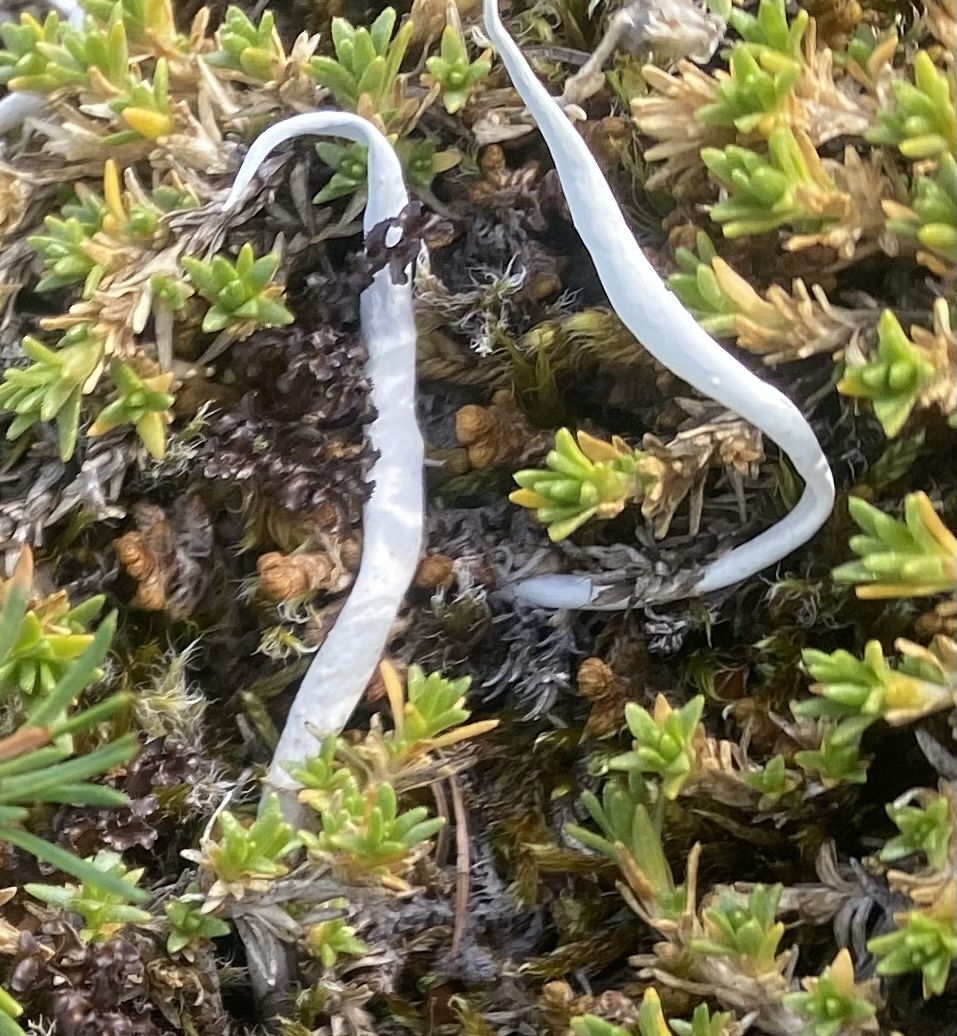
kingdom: Fungi
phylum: Ascomycota
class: Lecanoromycetes
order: Pertusariales
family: Icmadophilaceae
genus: Thamnolia
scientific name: Thamnolia vermicularis
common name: Whiteworm lichen
